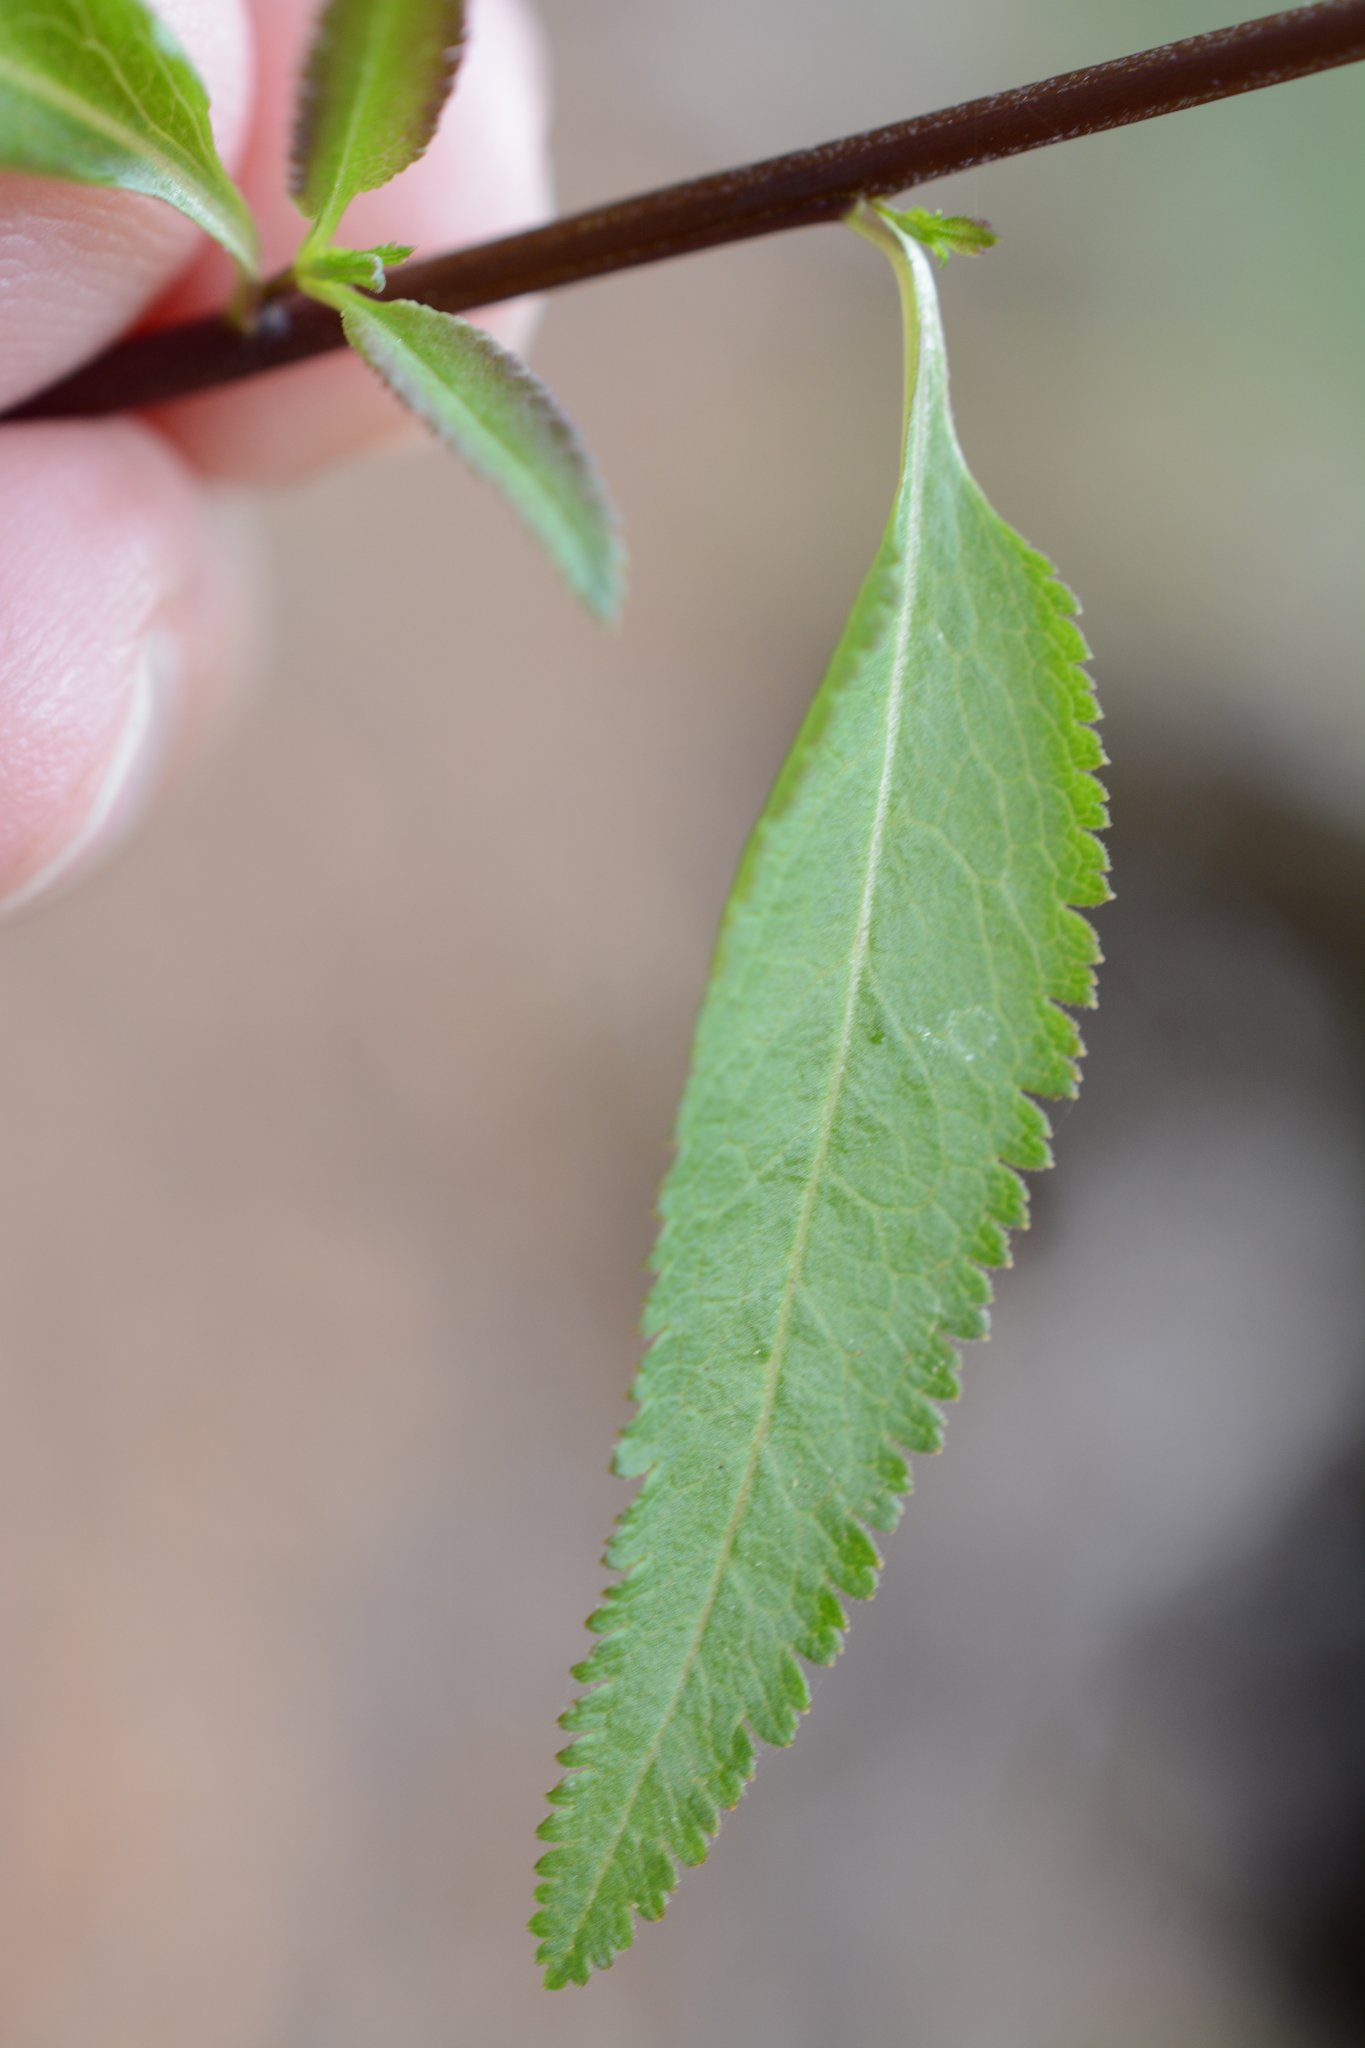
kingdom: Plantae
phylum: Tracheophyta
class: Magnoliopsida
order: Lamiales
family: Orobanchaceae
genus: Pedicularis
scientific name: Pedicularis racemosa
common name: Leafy lousewort
